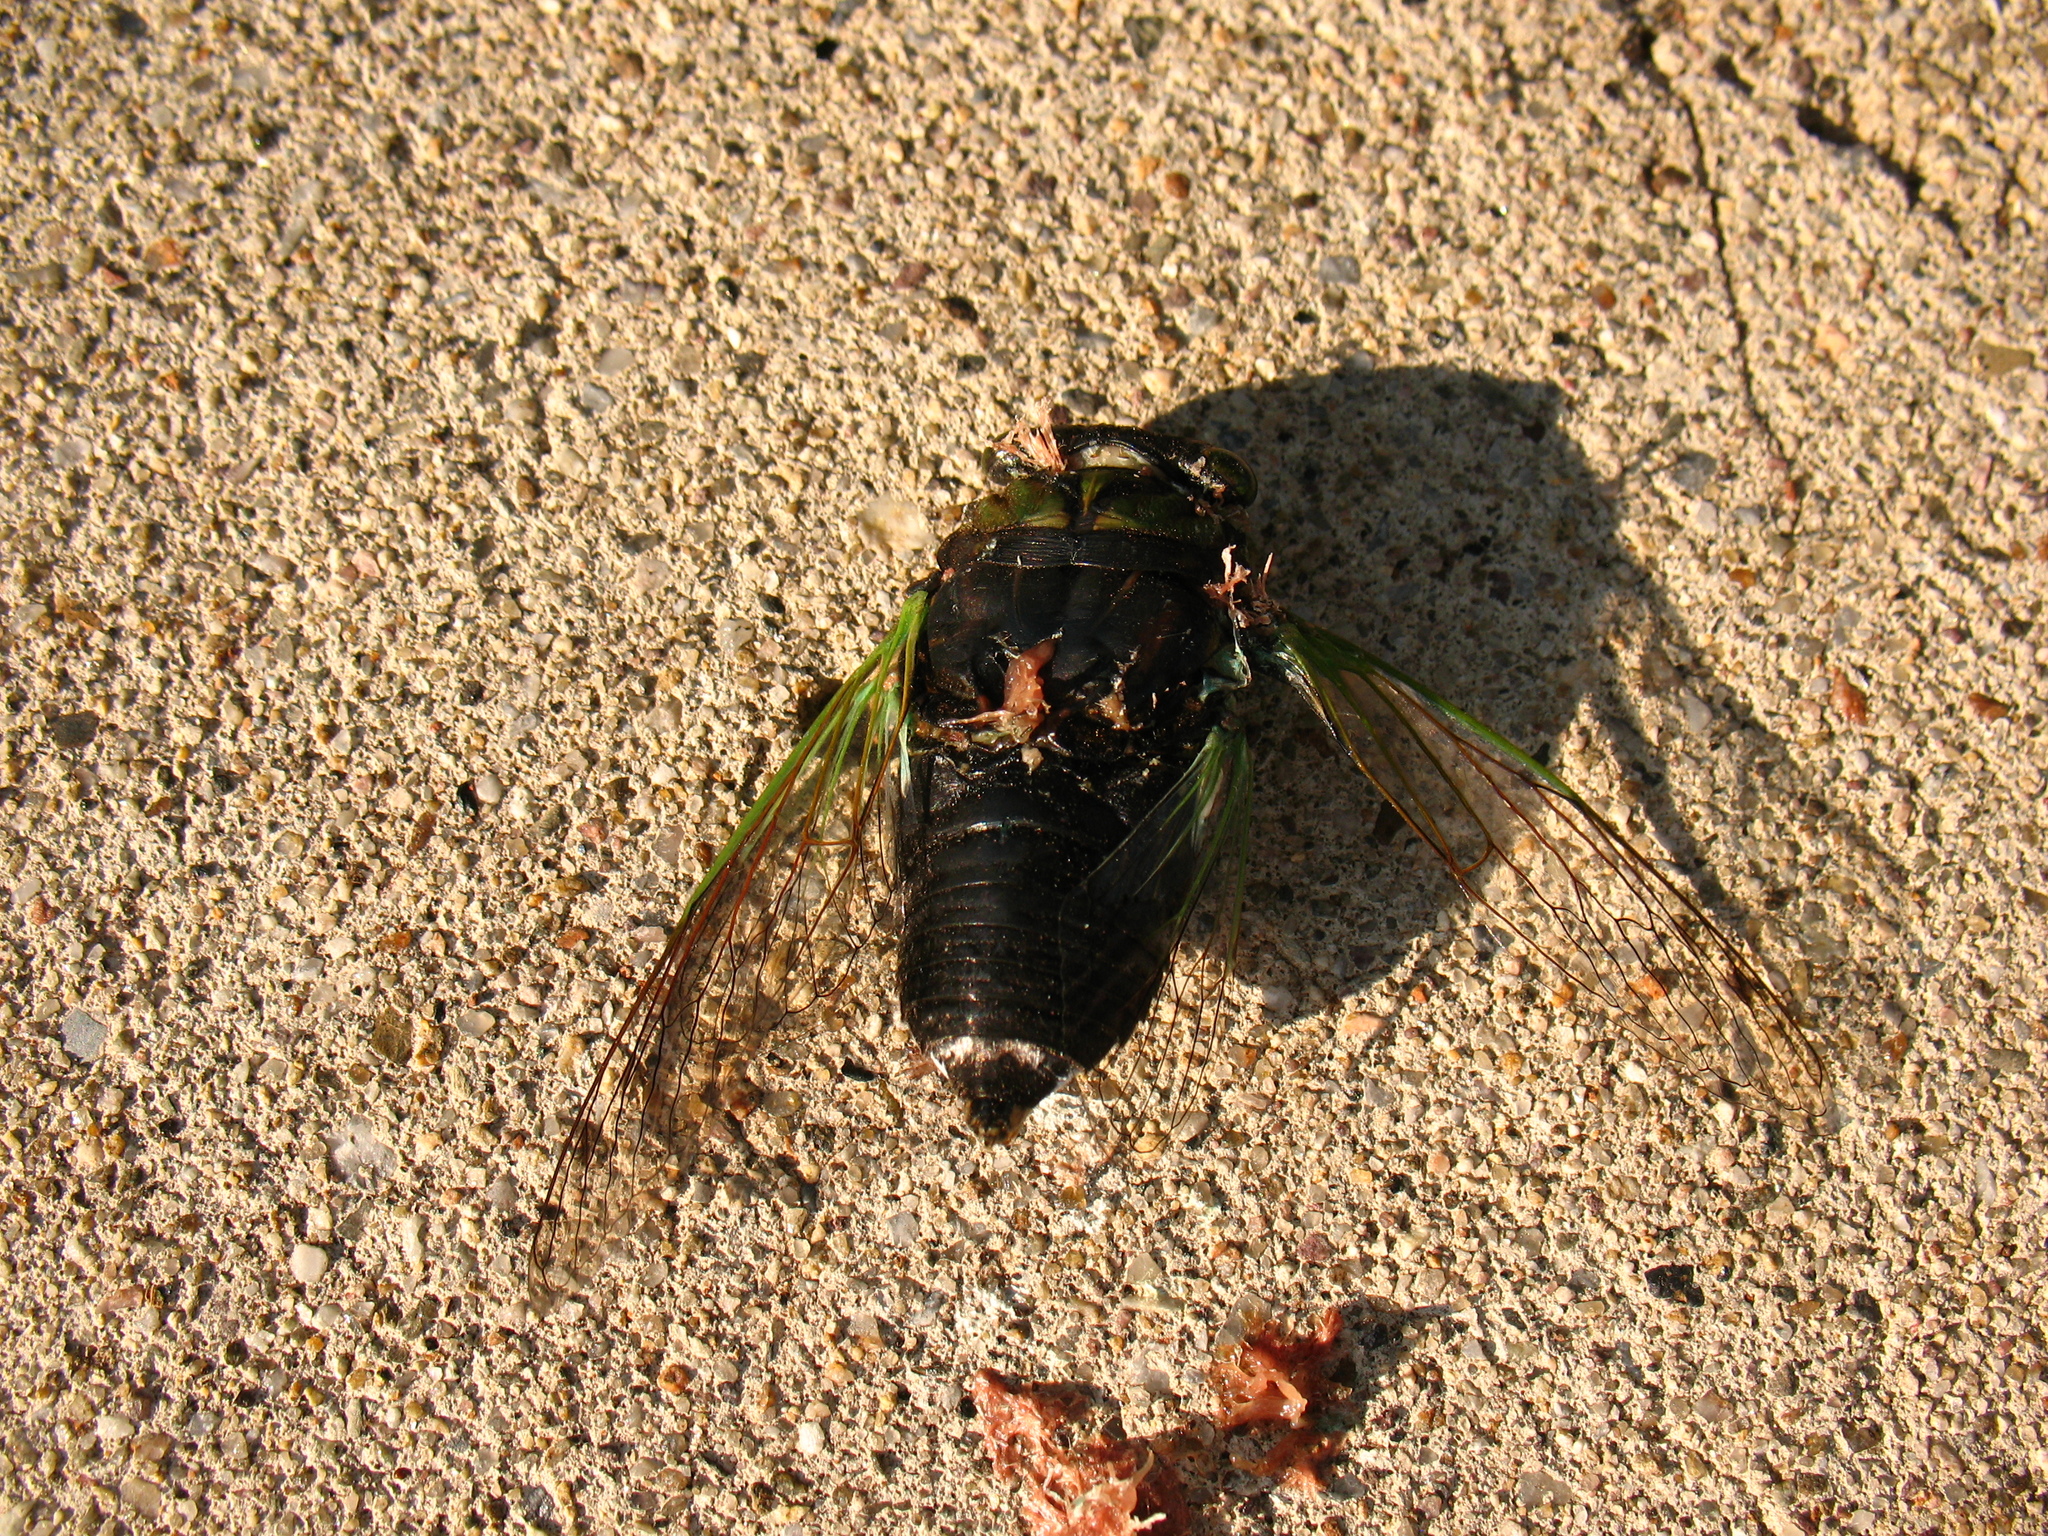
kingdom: Animalia
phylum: Arthropoda
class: Insecta
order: Hemiptera
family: Cicadidae
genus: Neotibicen
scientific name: Neotibicen tibicen
